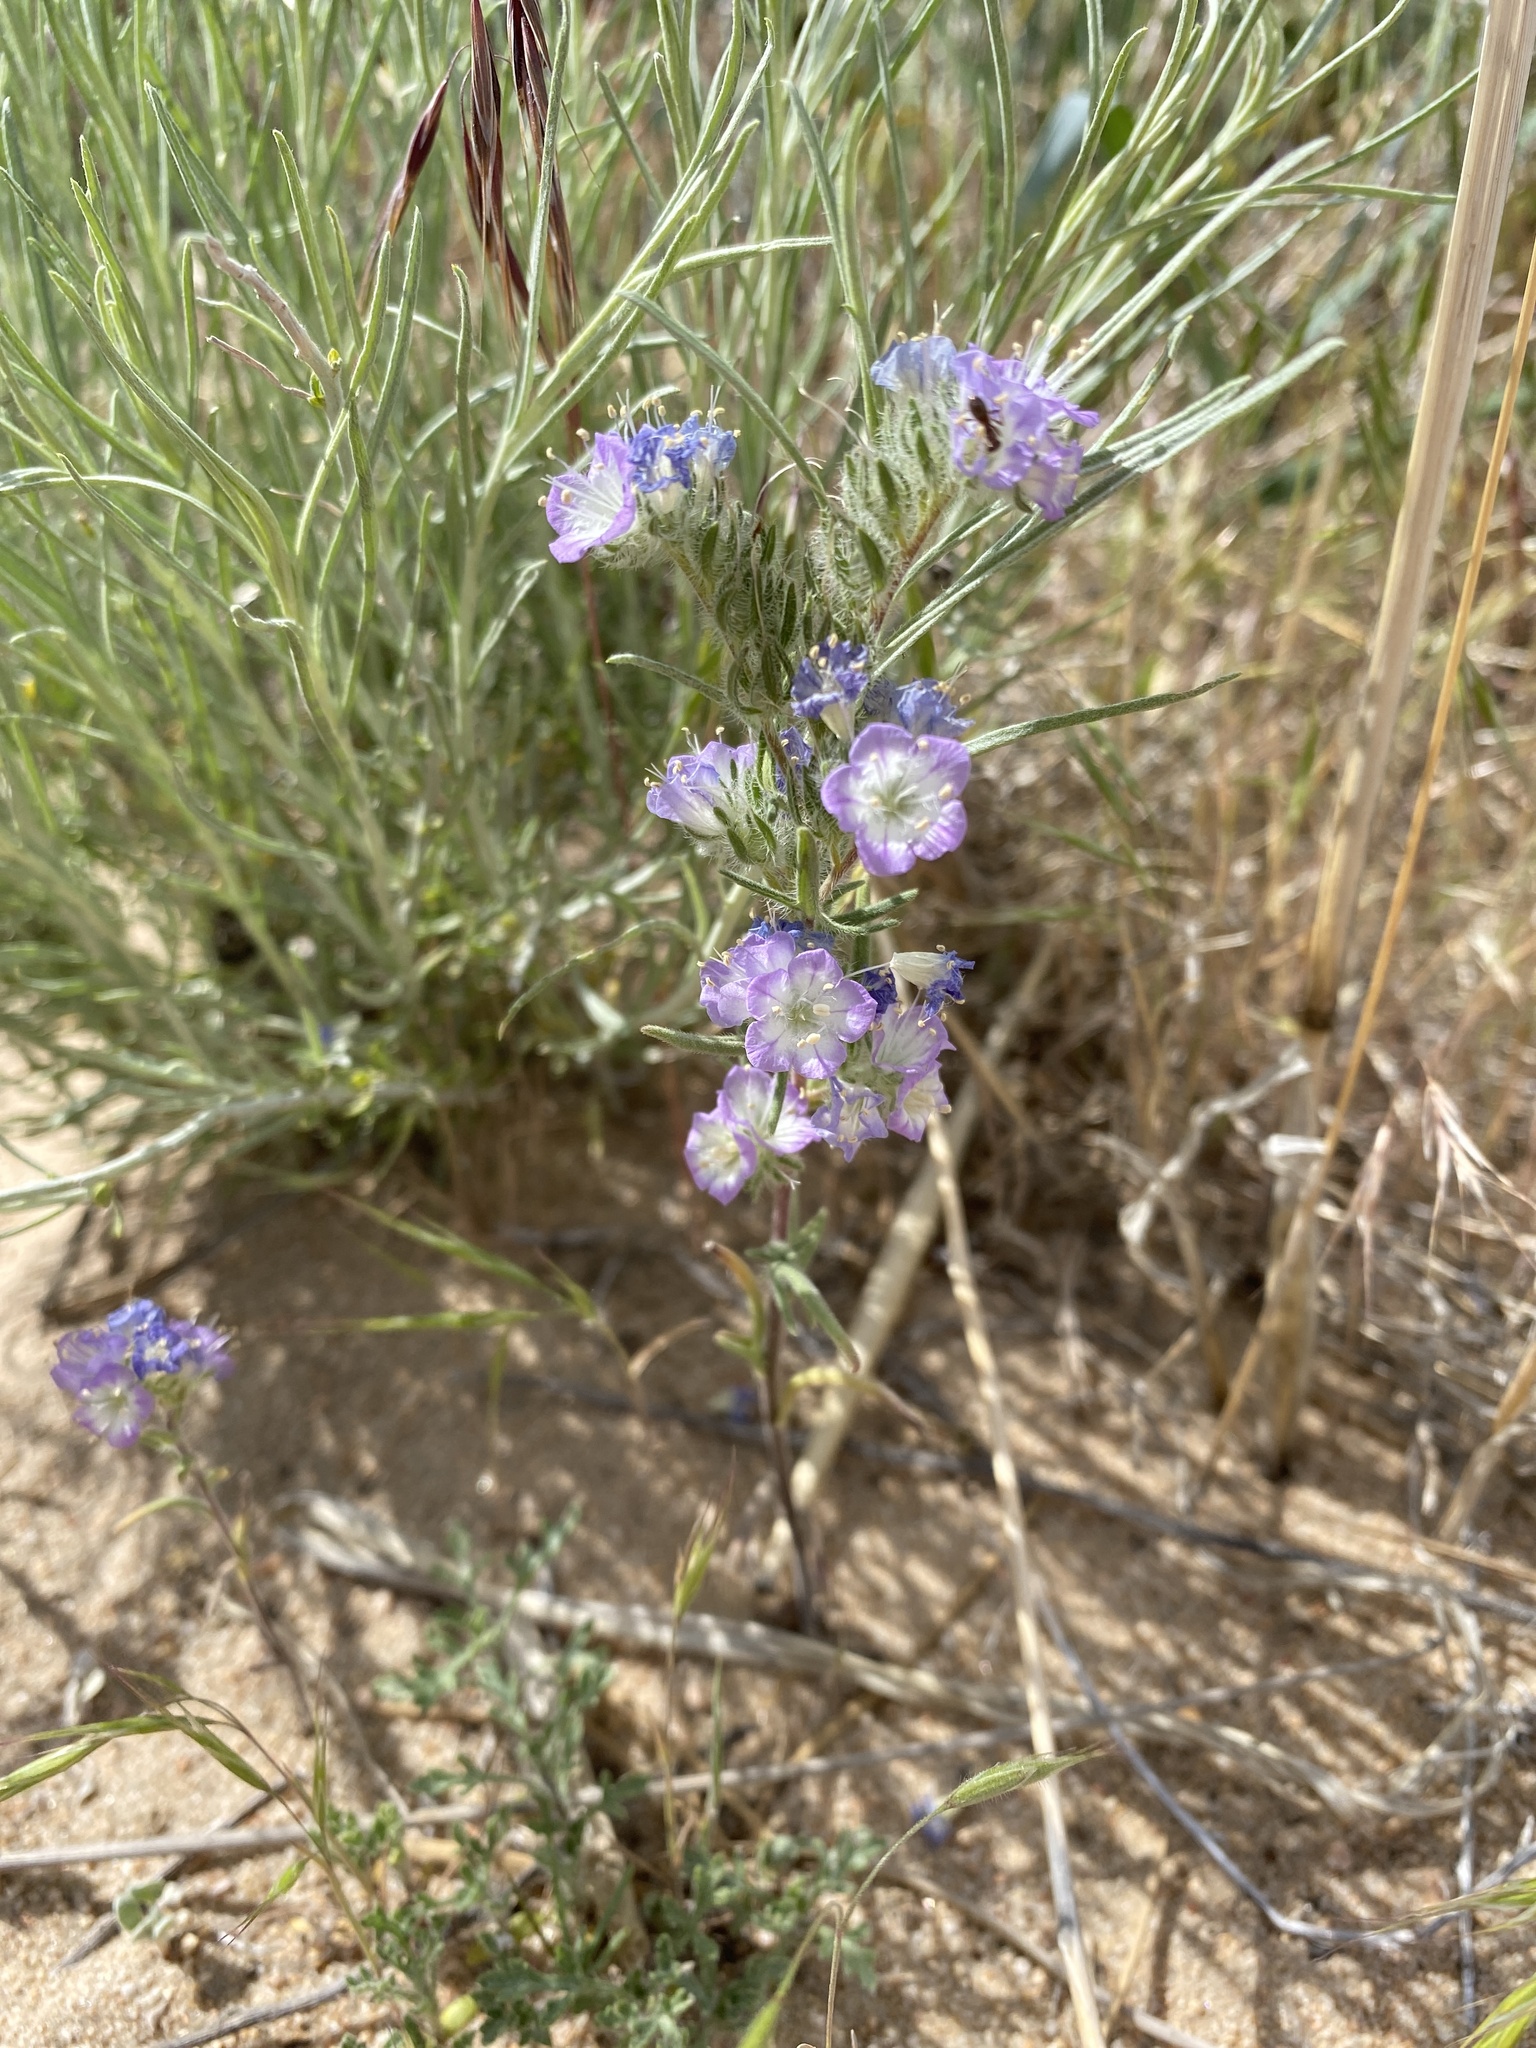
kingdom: Plantae
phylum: Tracheophyta
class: Magnoliopsida
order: Boraginales
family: Hydrophyllaceae
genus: Phacelia
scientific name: Phacelia linearis
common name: Linear-leaved phacelia
